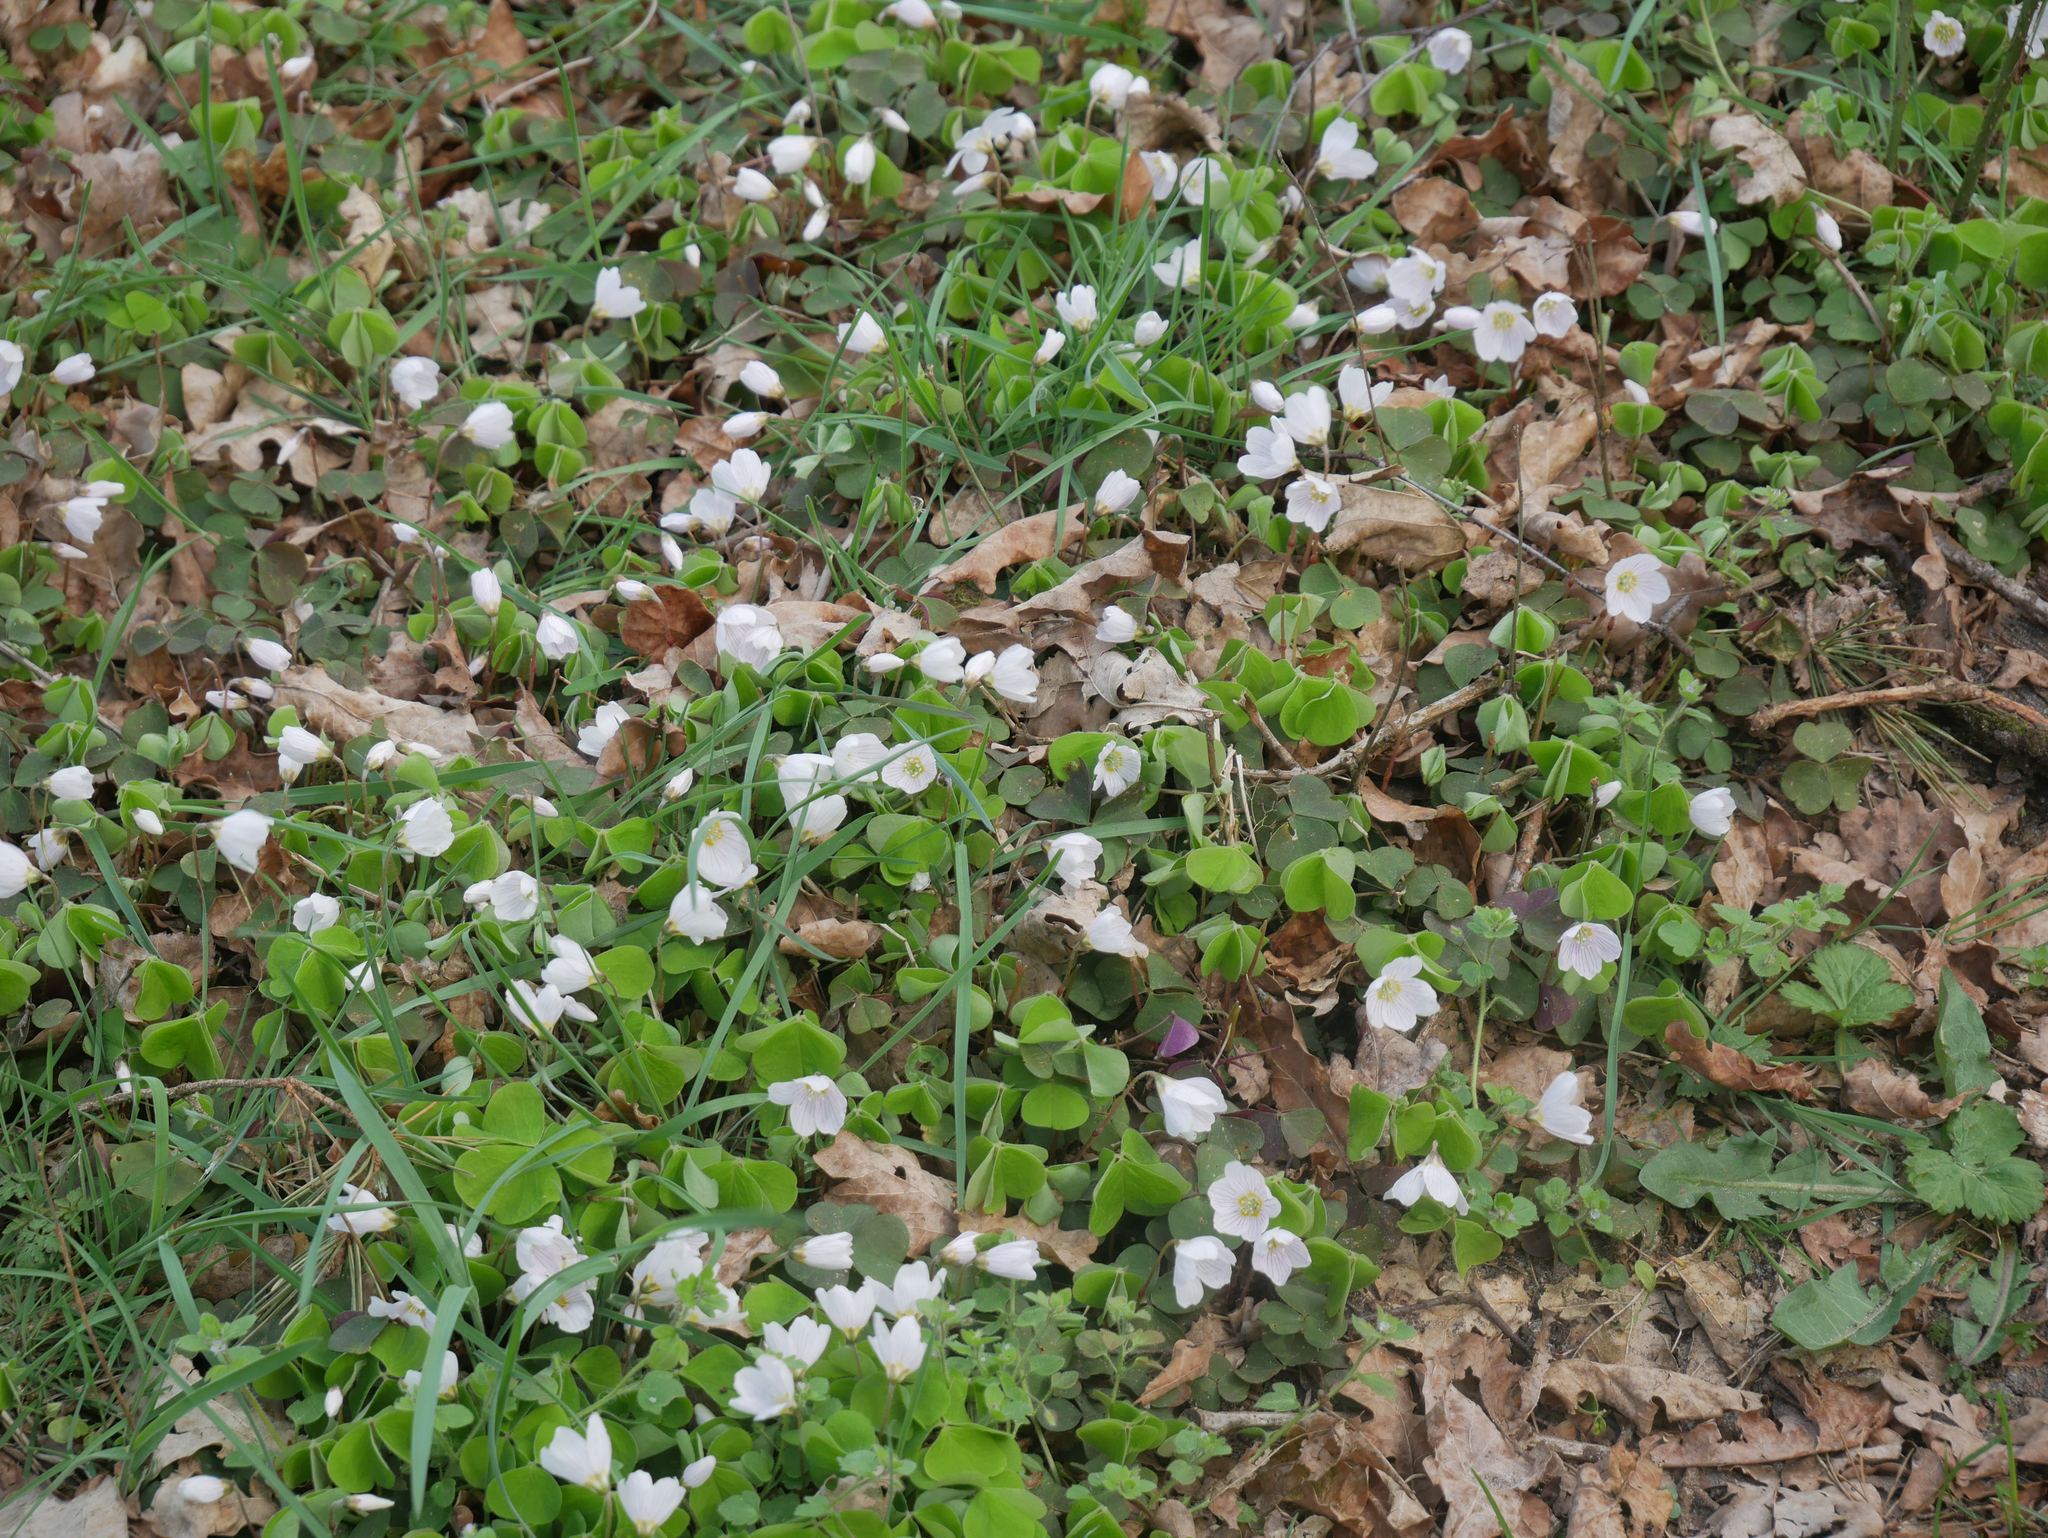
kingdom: Plantae
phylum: Tracheophyta
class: Magnoliopsida
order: Oxalidales
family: Oxalidaceae
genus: Oxalis
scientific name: Oxalis acetosella
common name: Wood-sorrel
